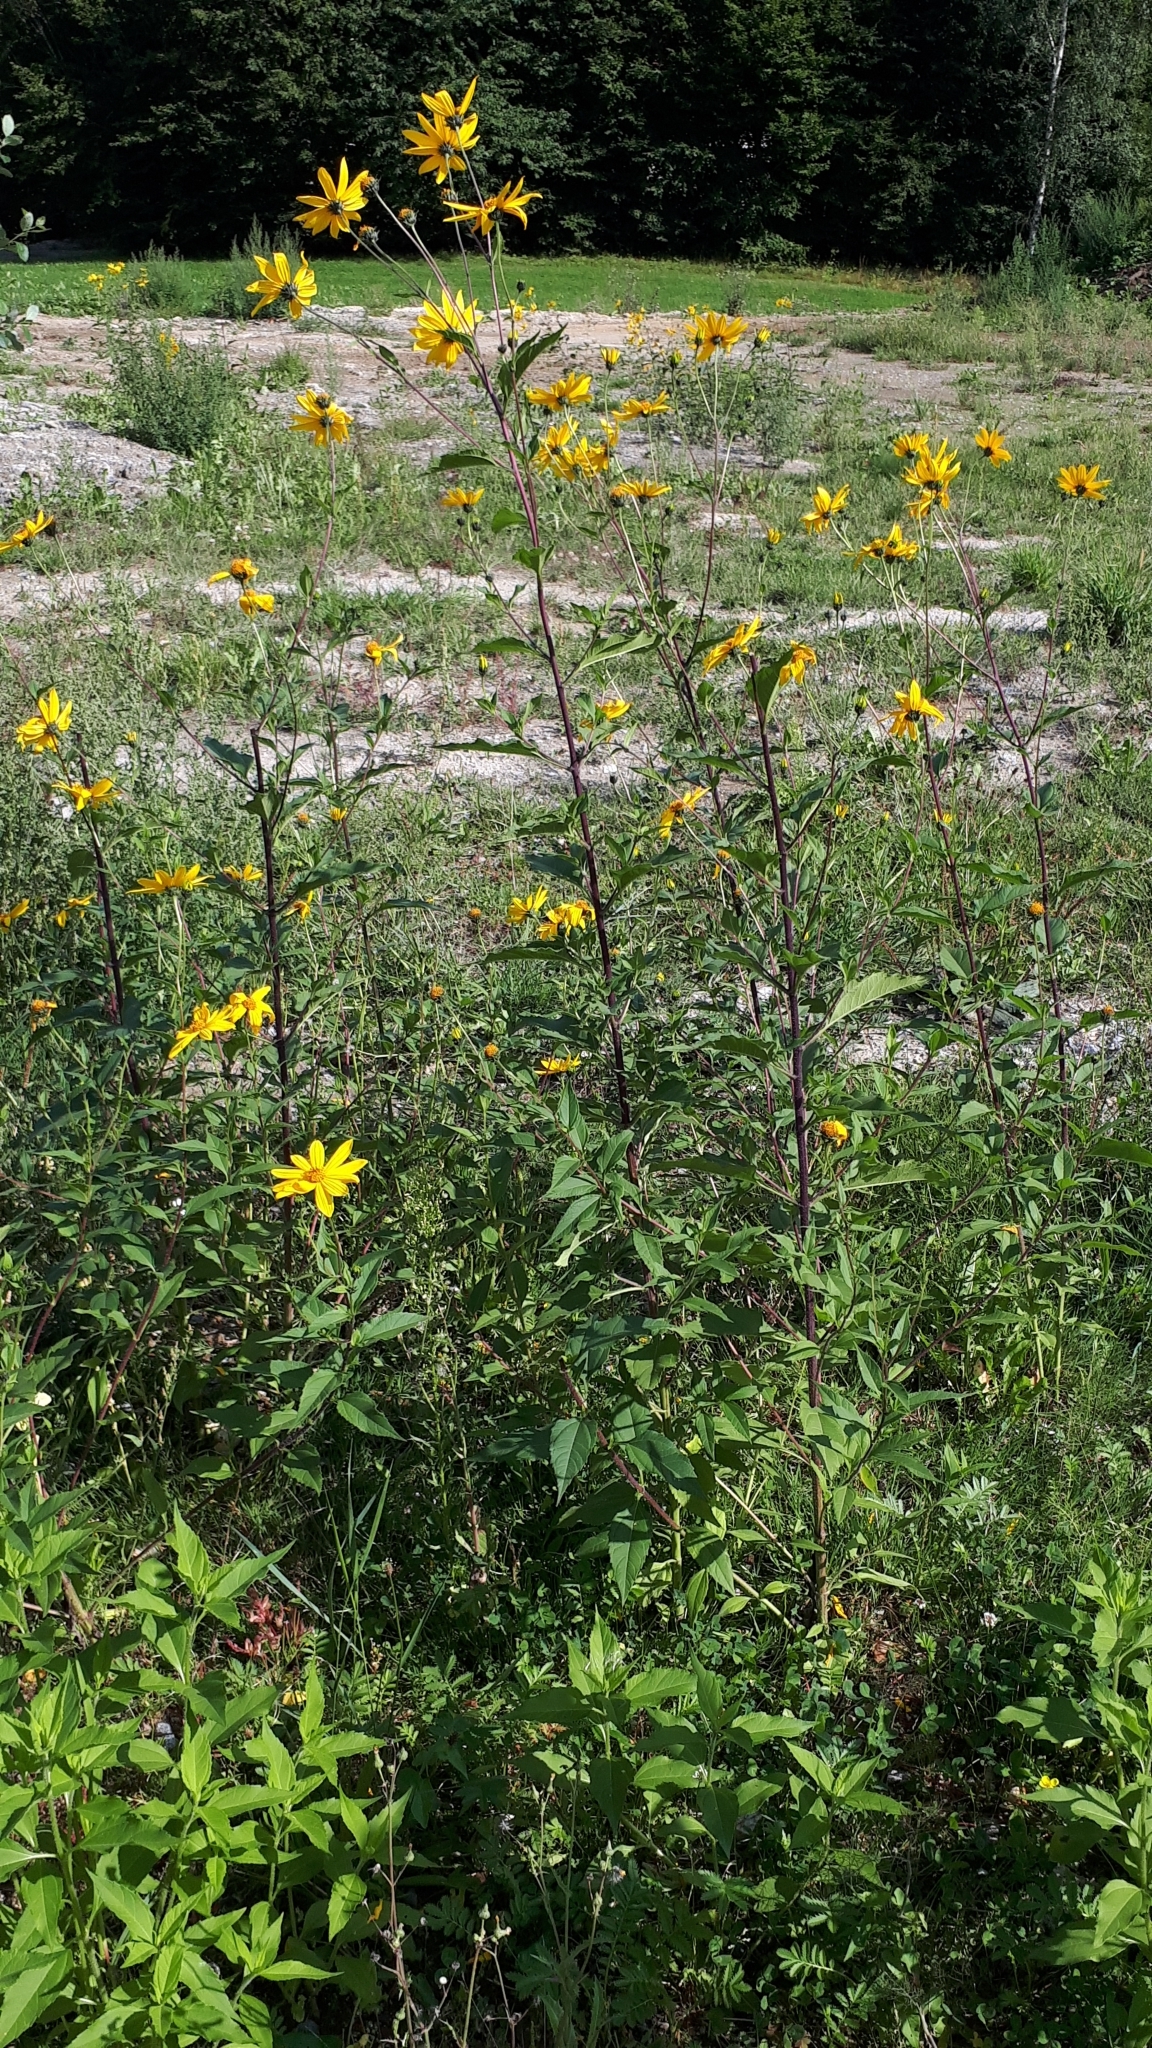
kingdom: Plantae
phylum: Tracheophyta
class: Magnoliopsida
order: Asterales
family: Asteraceae
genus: Helianthus
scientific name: Helianthus tuberosus
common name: Jerusalem artichoke
